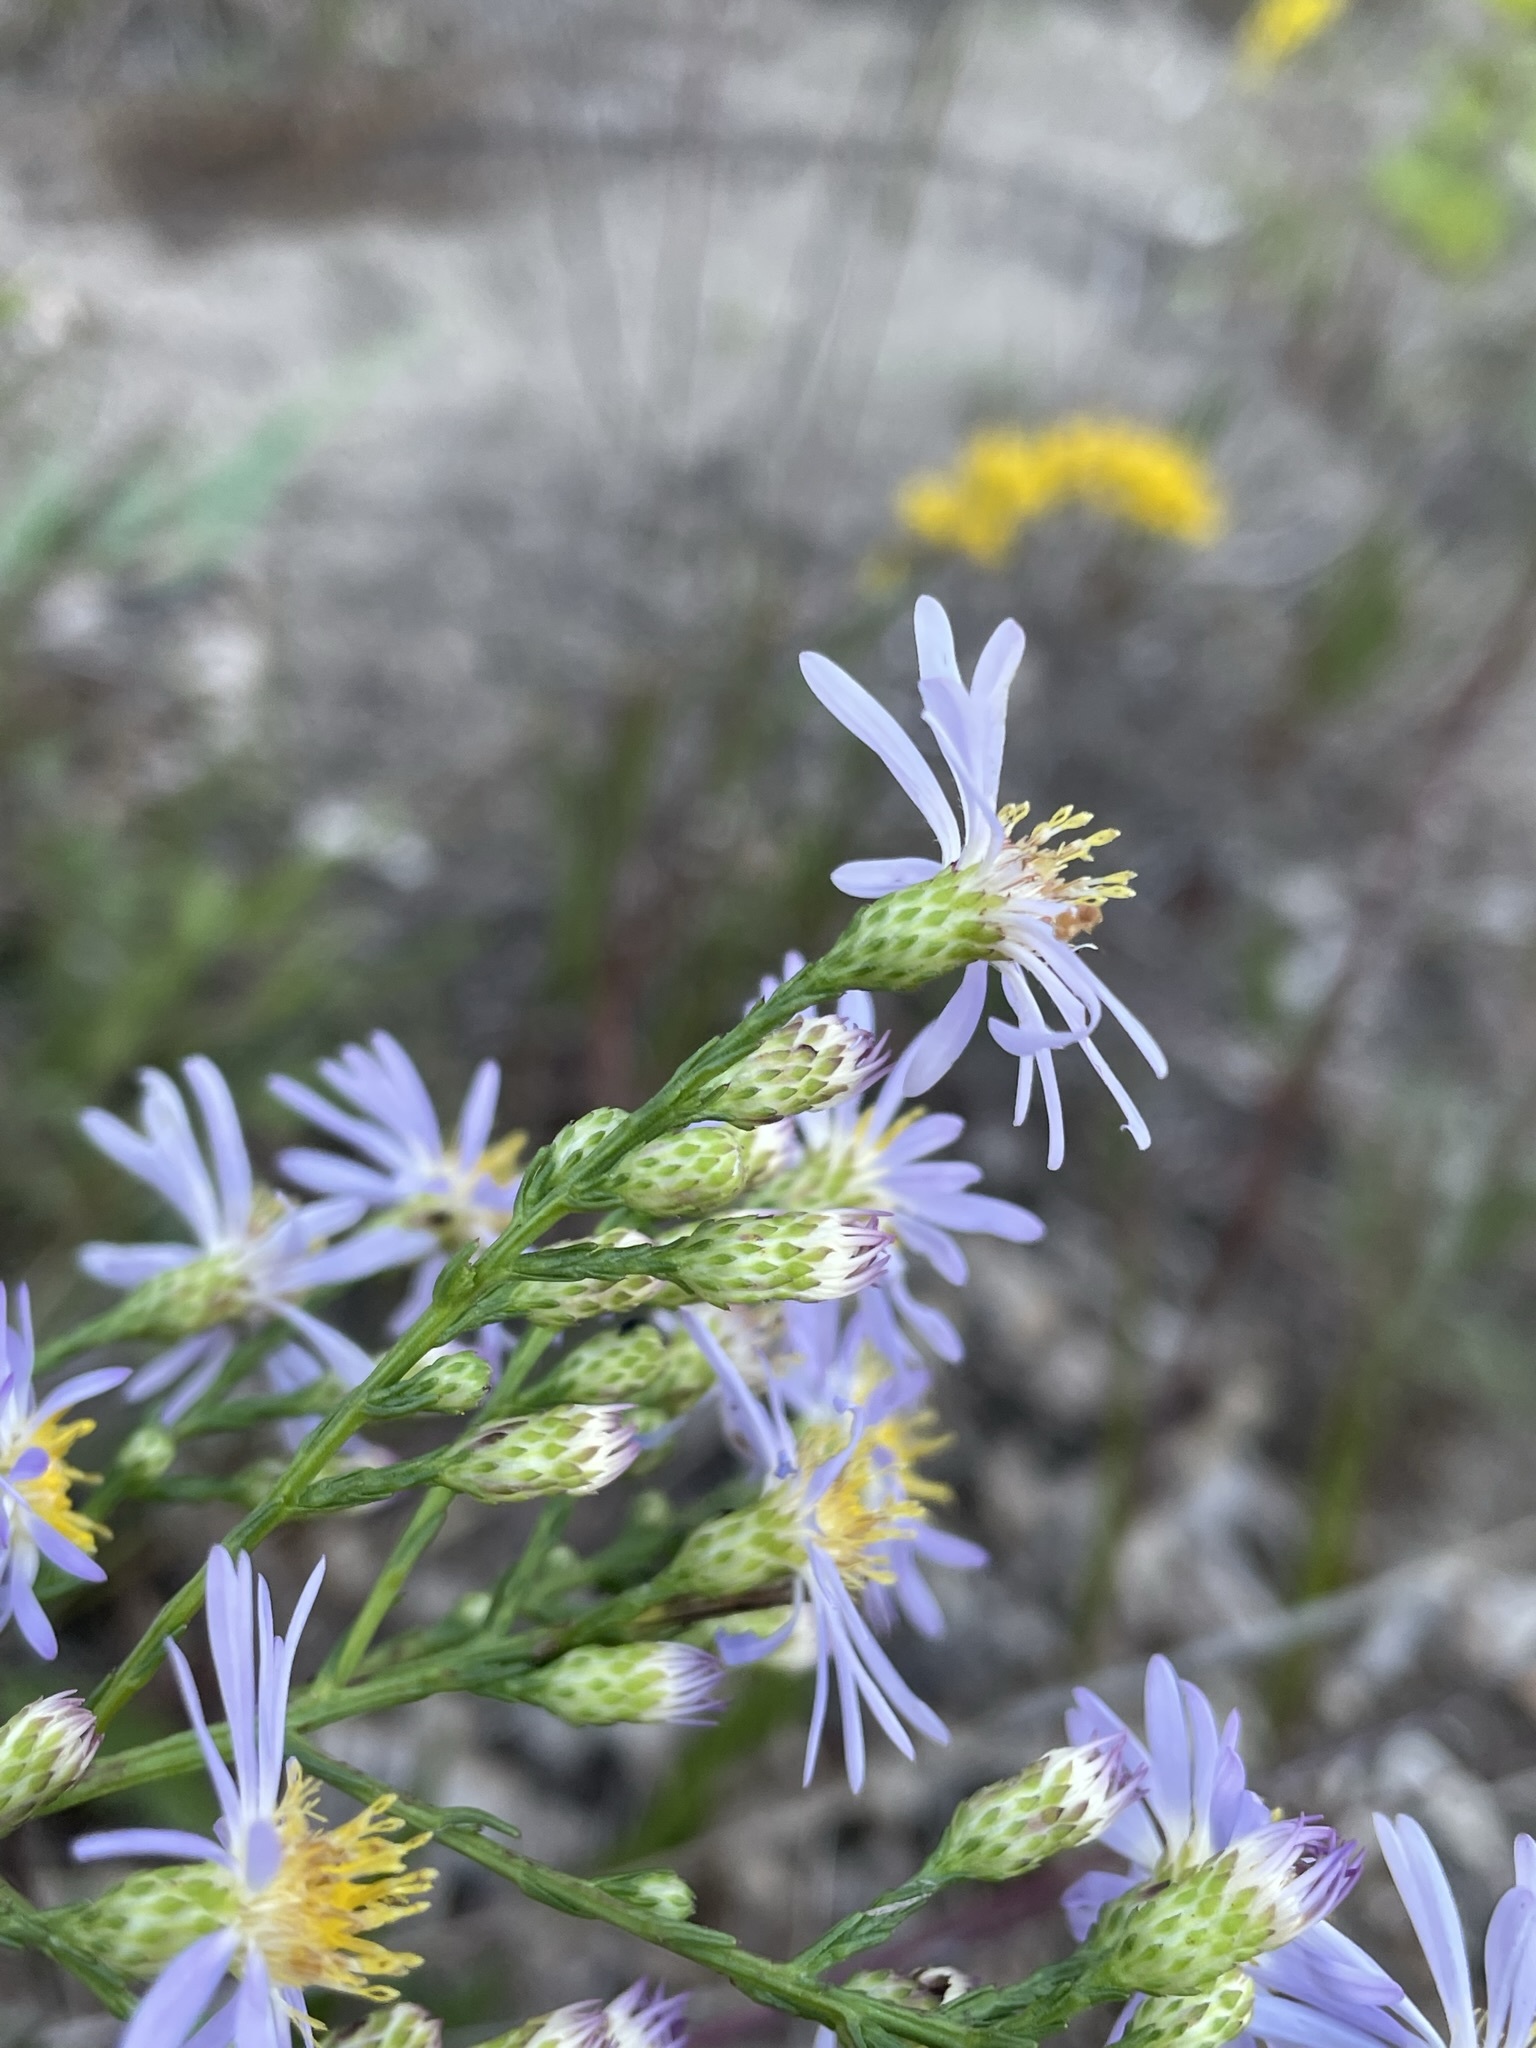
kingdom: Plantae
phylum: Tracheophyta
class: Magnoliopsida
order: Asterales
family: Asteraceae
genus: Symphyotrichum
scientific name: Symphyotrichum oolentangiense
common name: Azure aster
